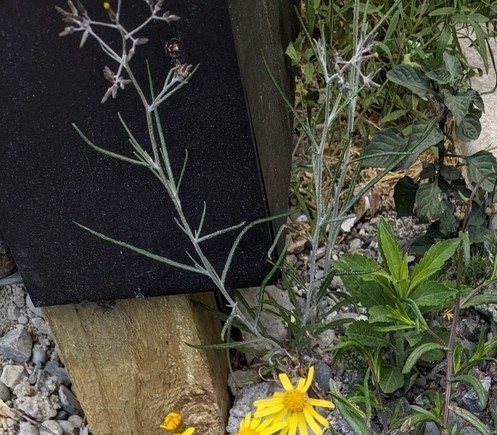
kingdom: Plantae
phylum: Tracheophyta
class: Magnoliopsida
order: Asterales
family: Asteraceae
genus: Senecio
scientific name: Senecio quadridentatus
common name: Cotton fireweed
